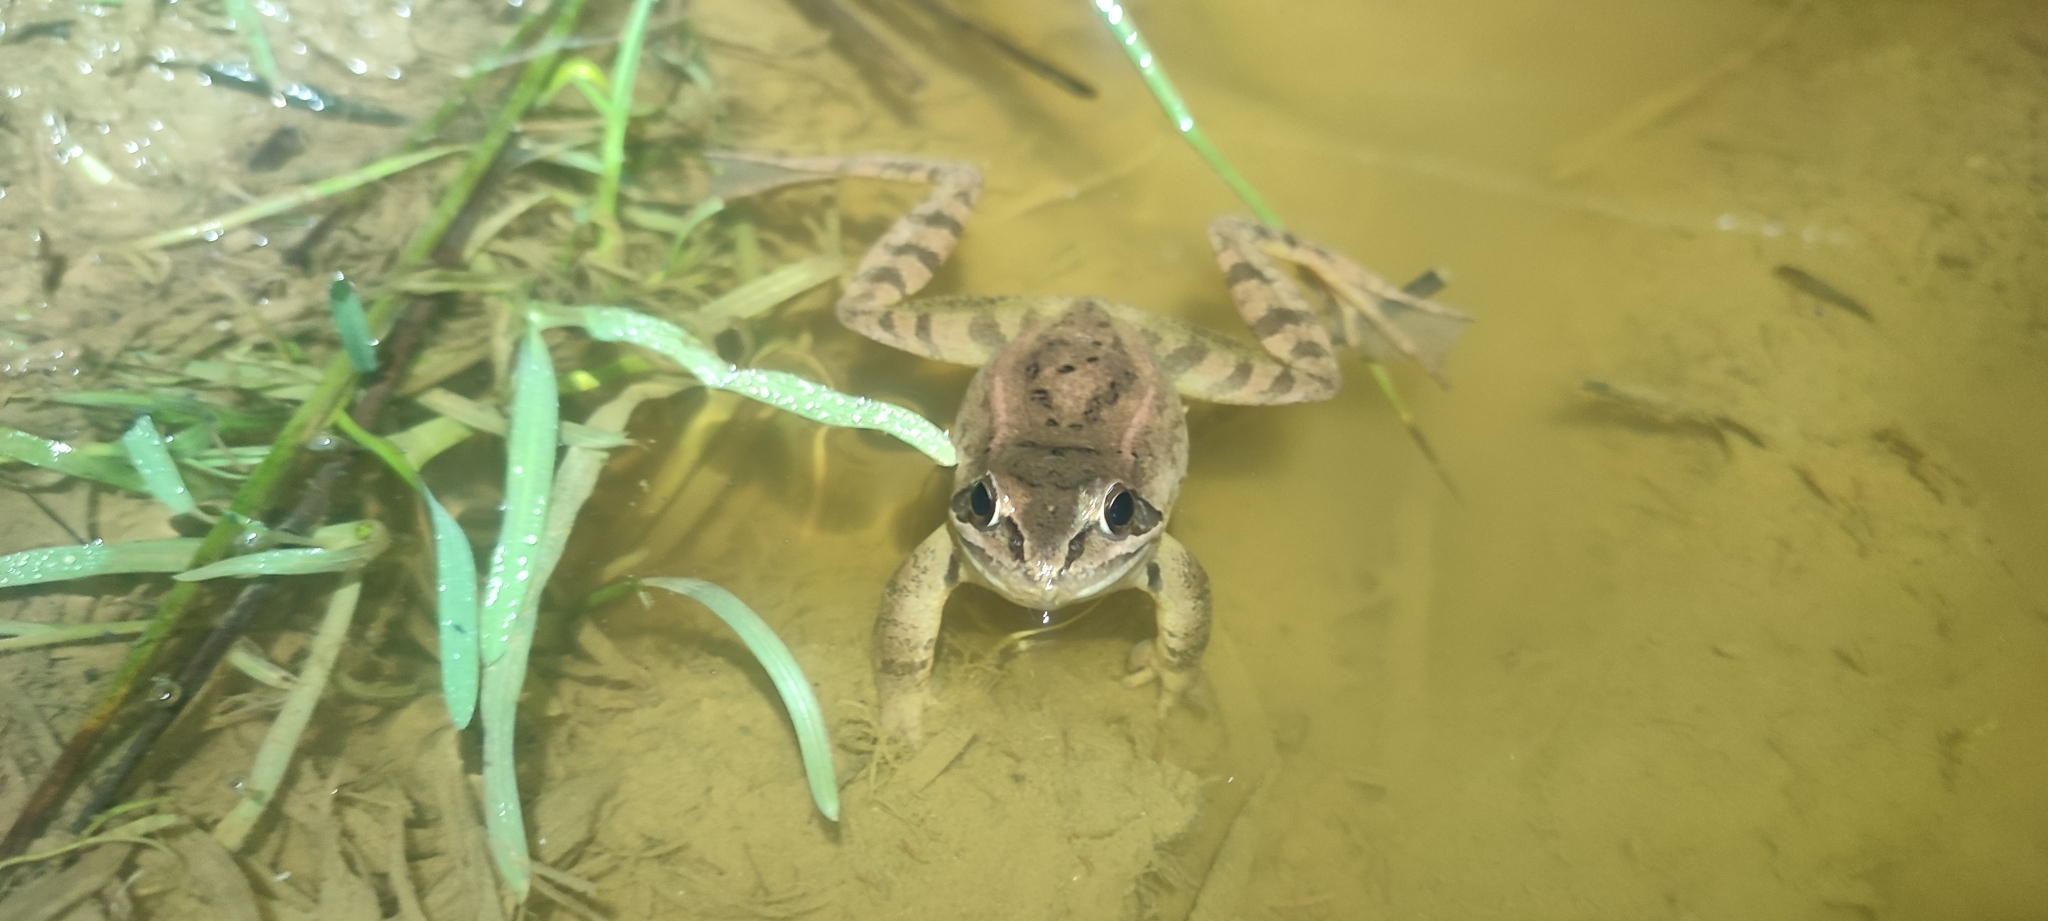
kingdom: Animalia
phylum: Chordata
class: Amphibia
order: Anura
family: Ranidae
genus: Rana
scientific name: Rana dalmatina
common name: Agile frog
